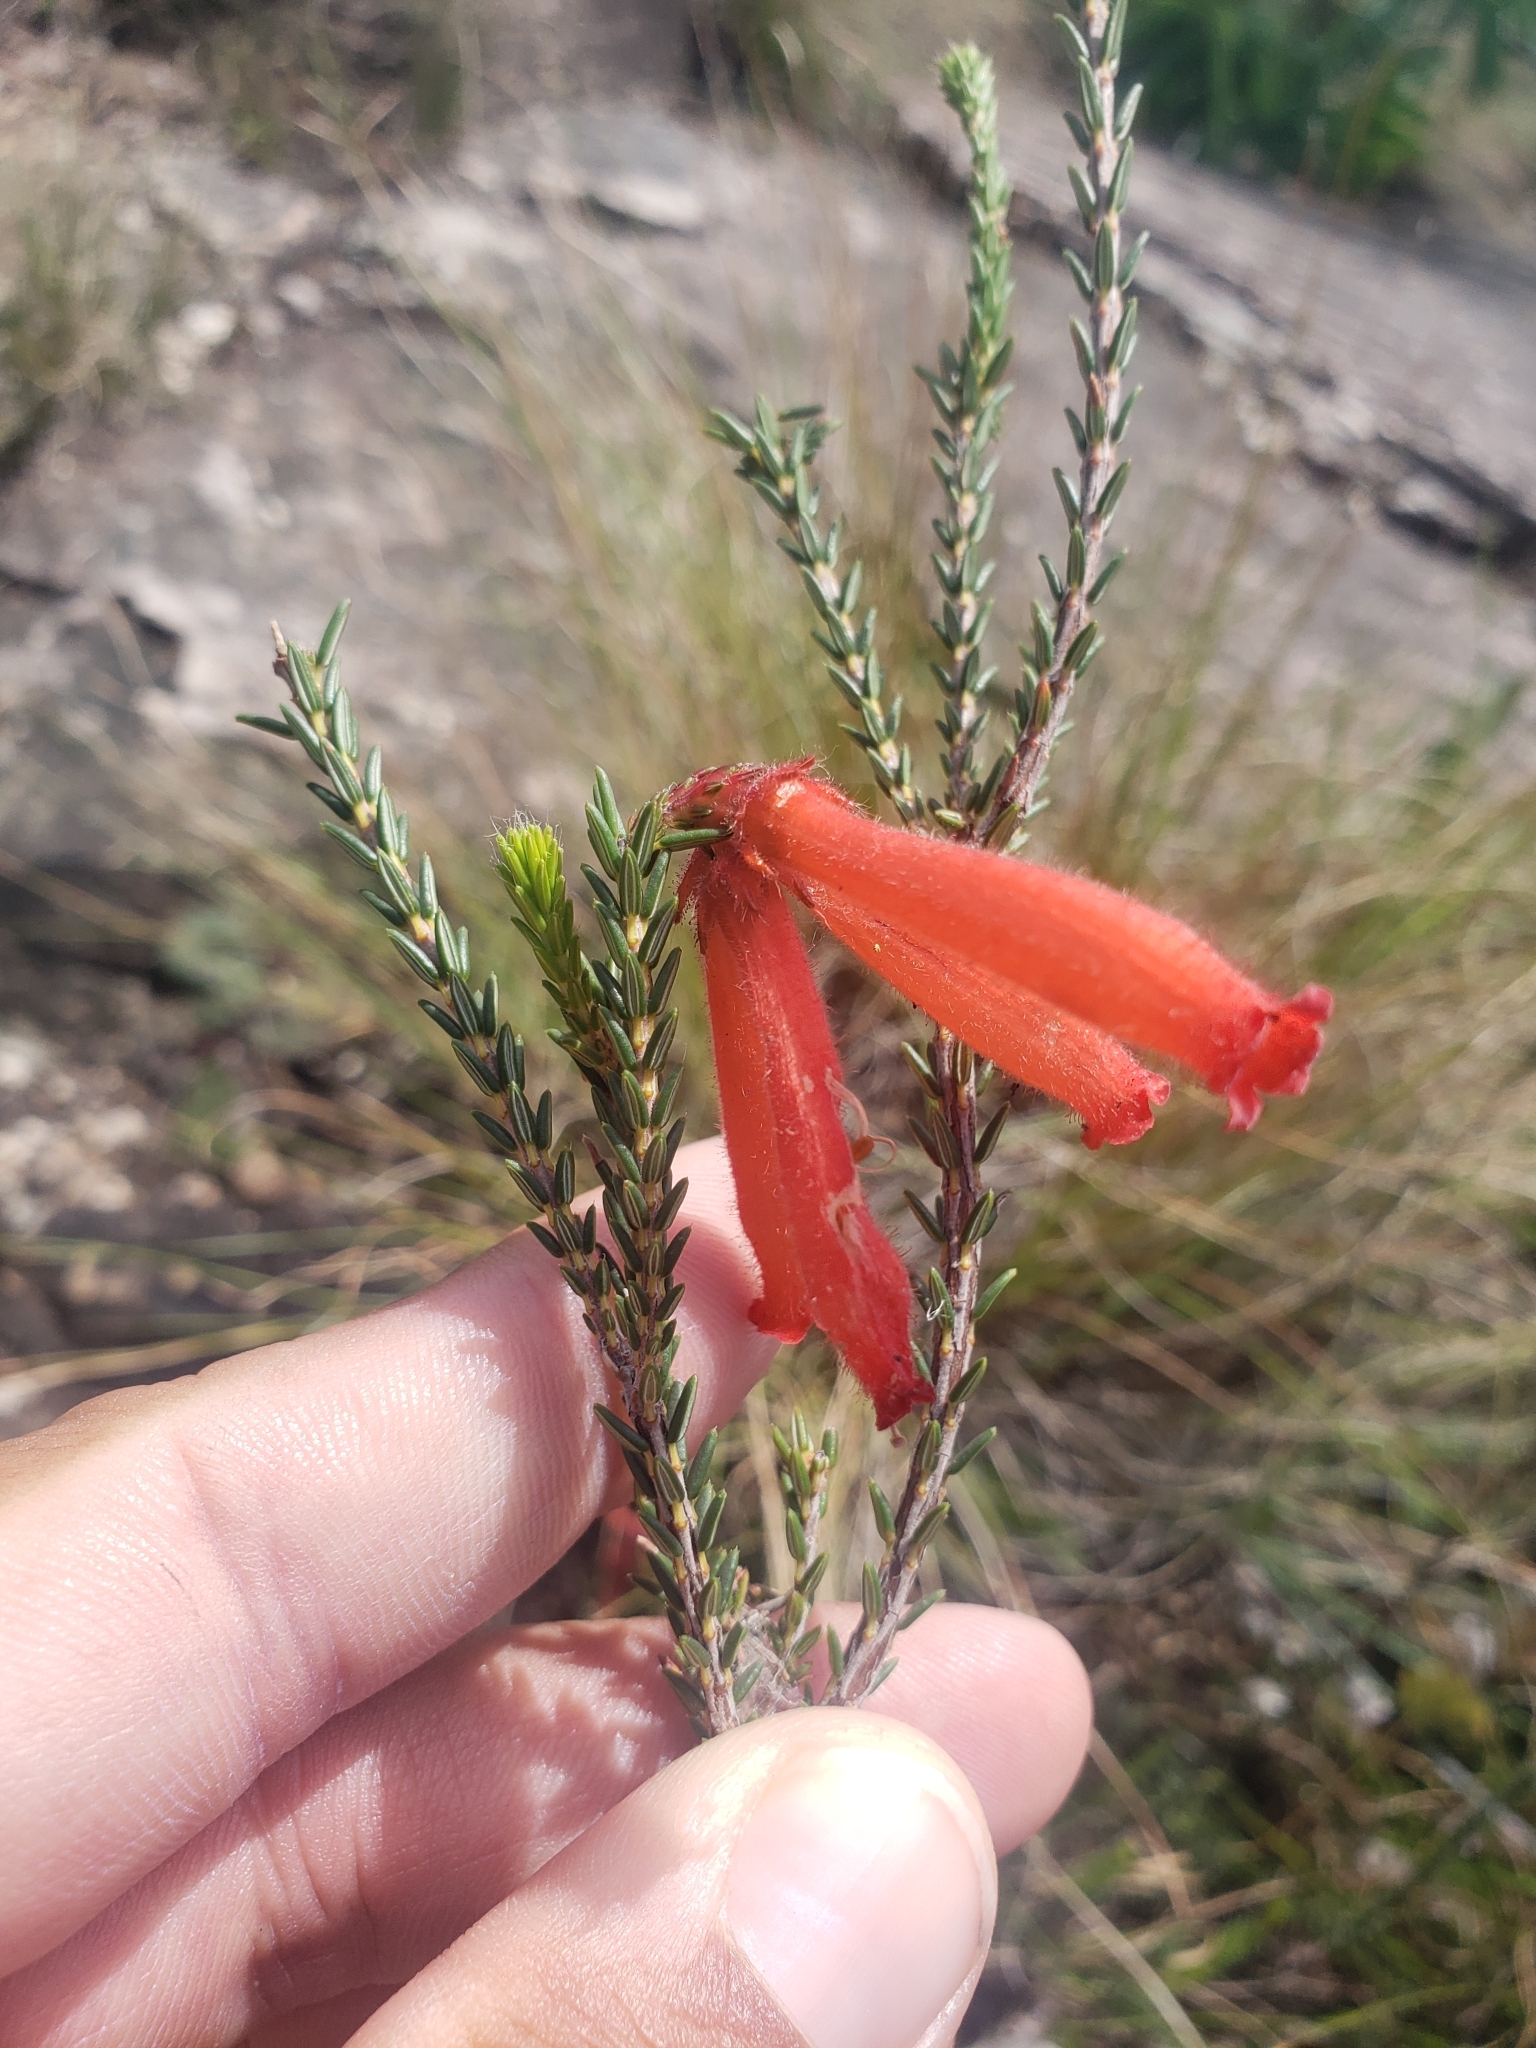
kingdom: Plantae
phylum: Tracheophyta
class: Magnoliopsida
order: Ericales
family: Ericaceae
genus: Erica
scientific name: Erica cerinthoides
